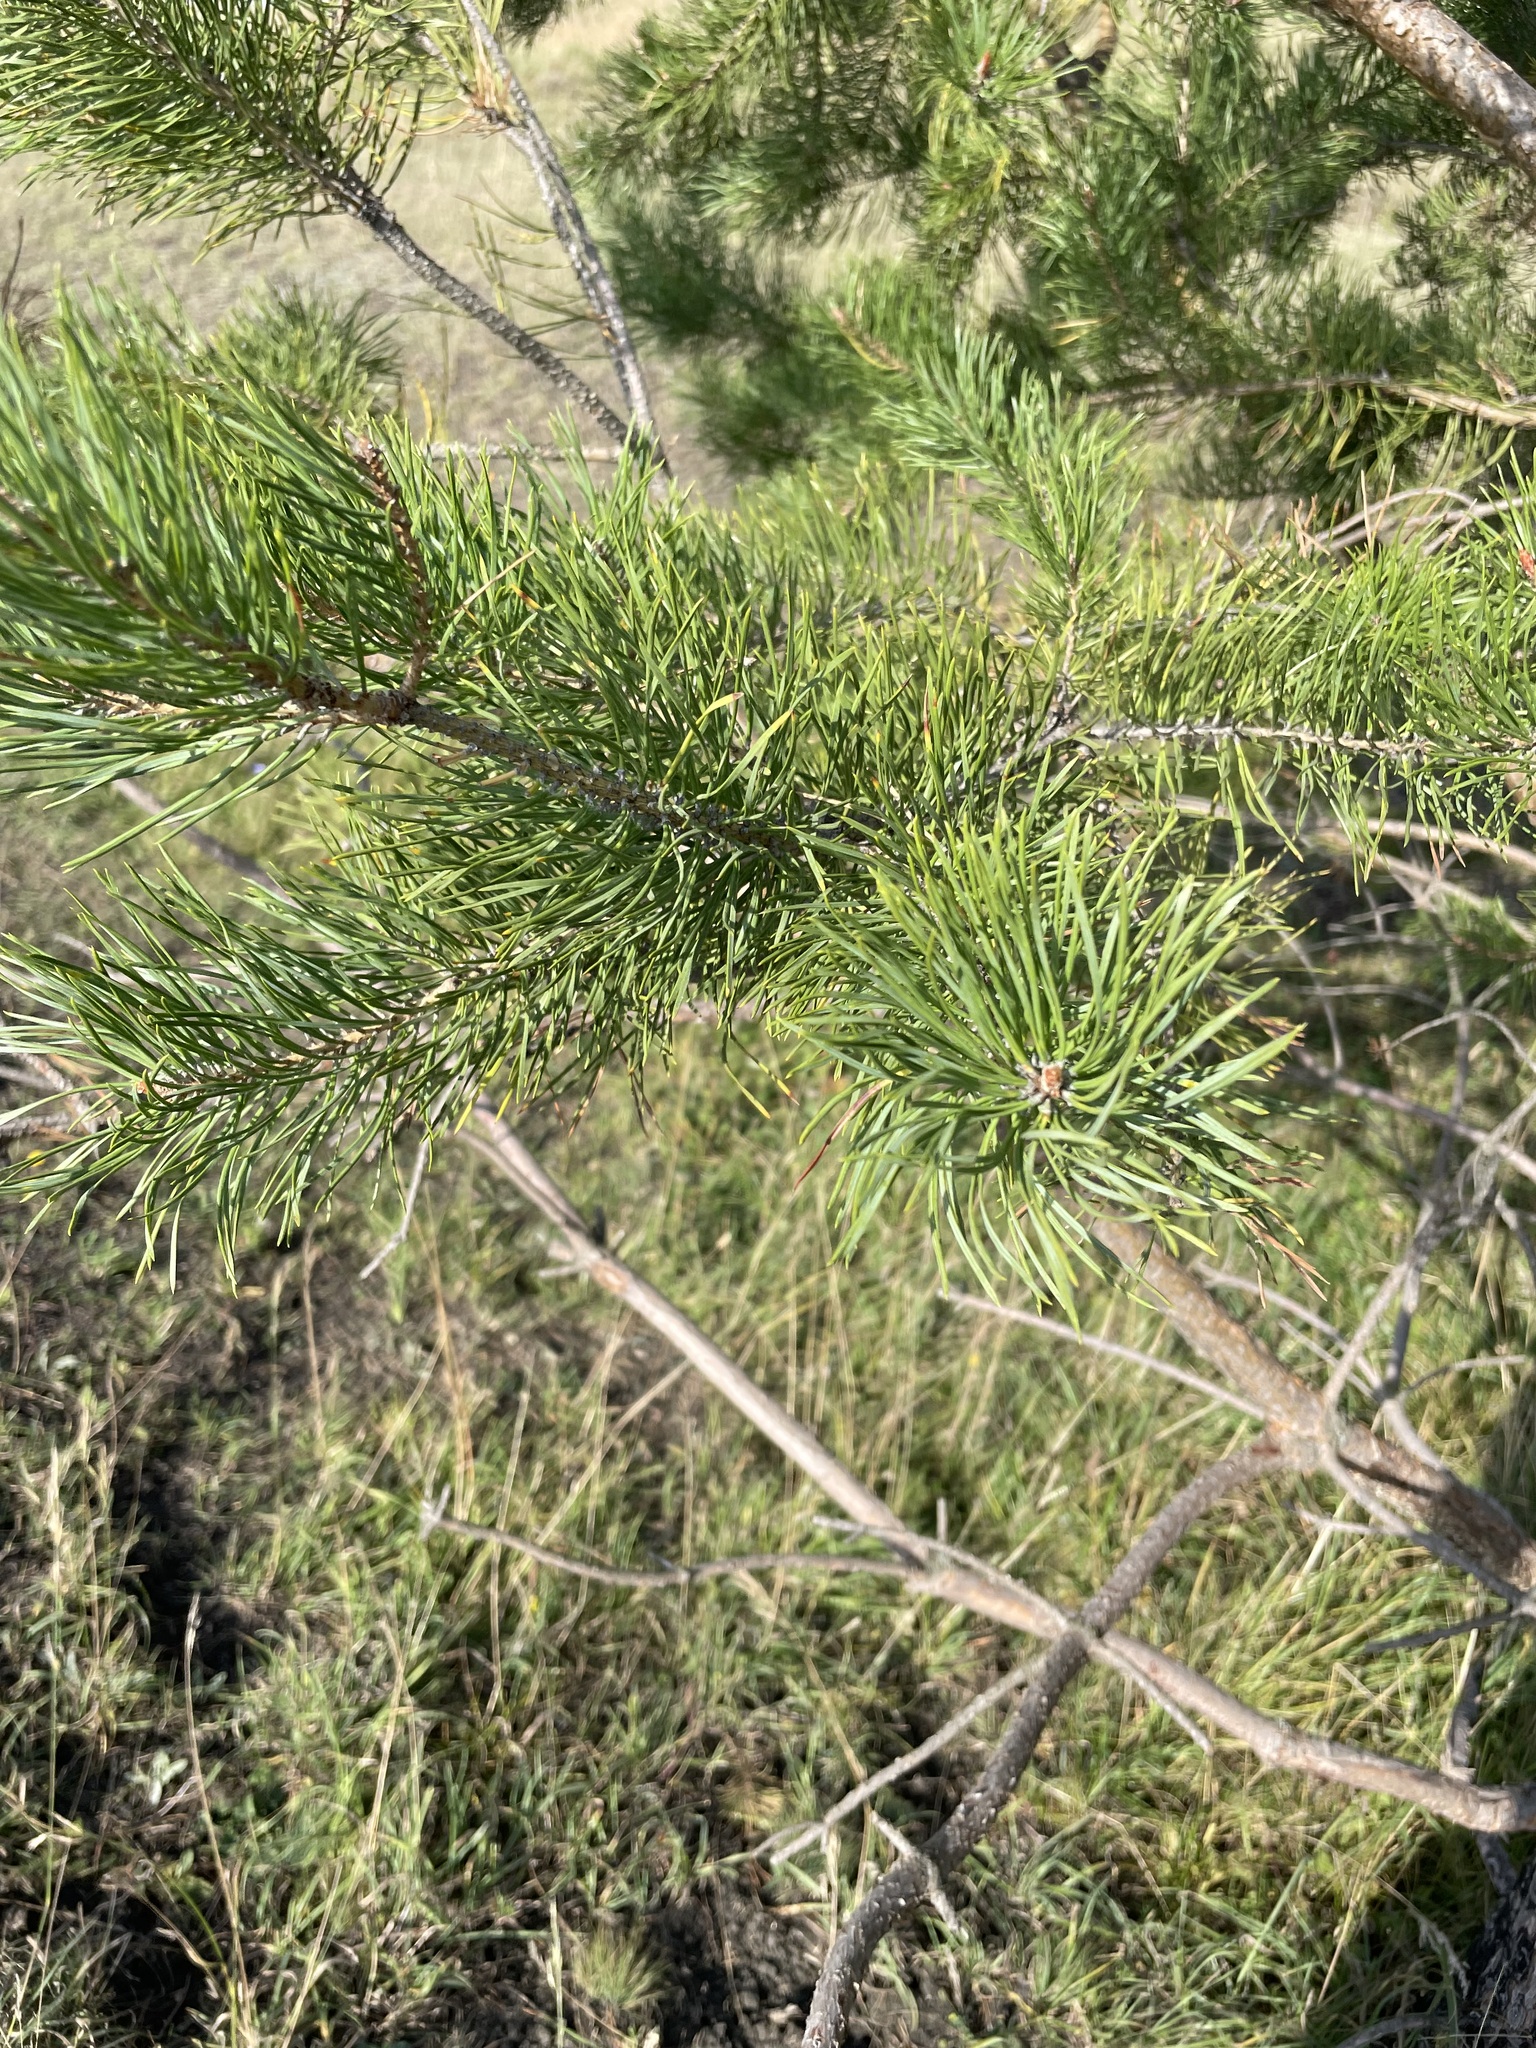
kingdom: Plantae
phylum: Tracheophyta
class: Pinopsida
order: Pinales
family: Pinaceae
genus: Pinus
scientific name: Pinus sylvestris
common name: Scots pine
